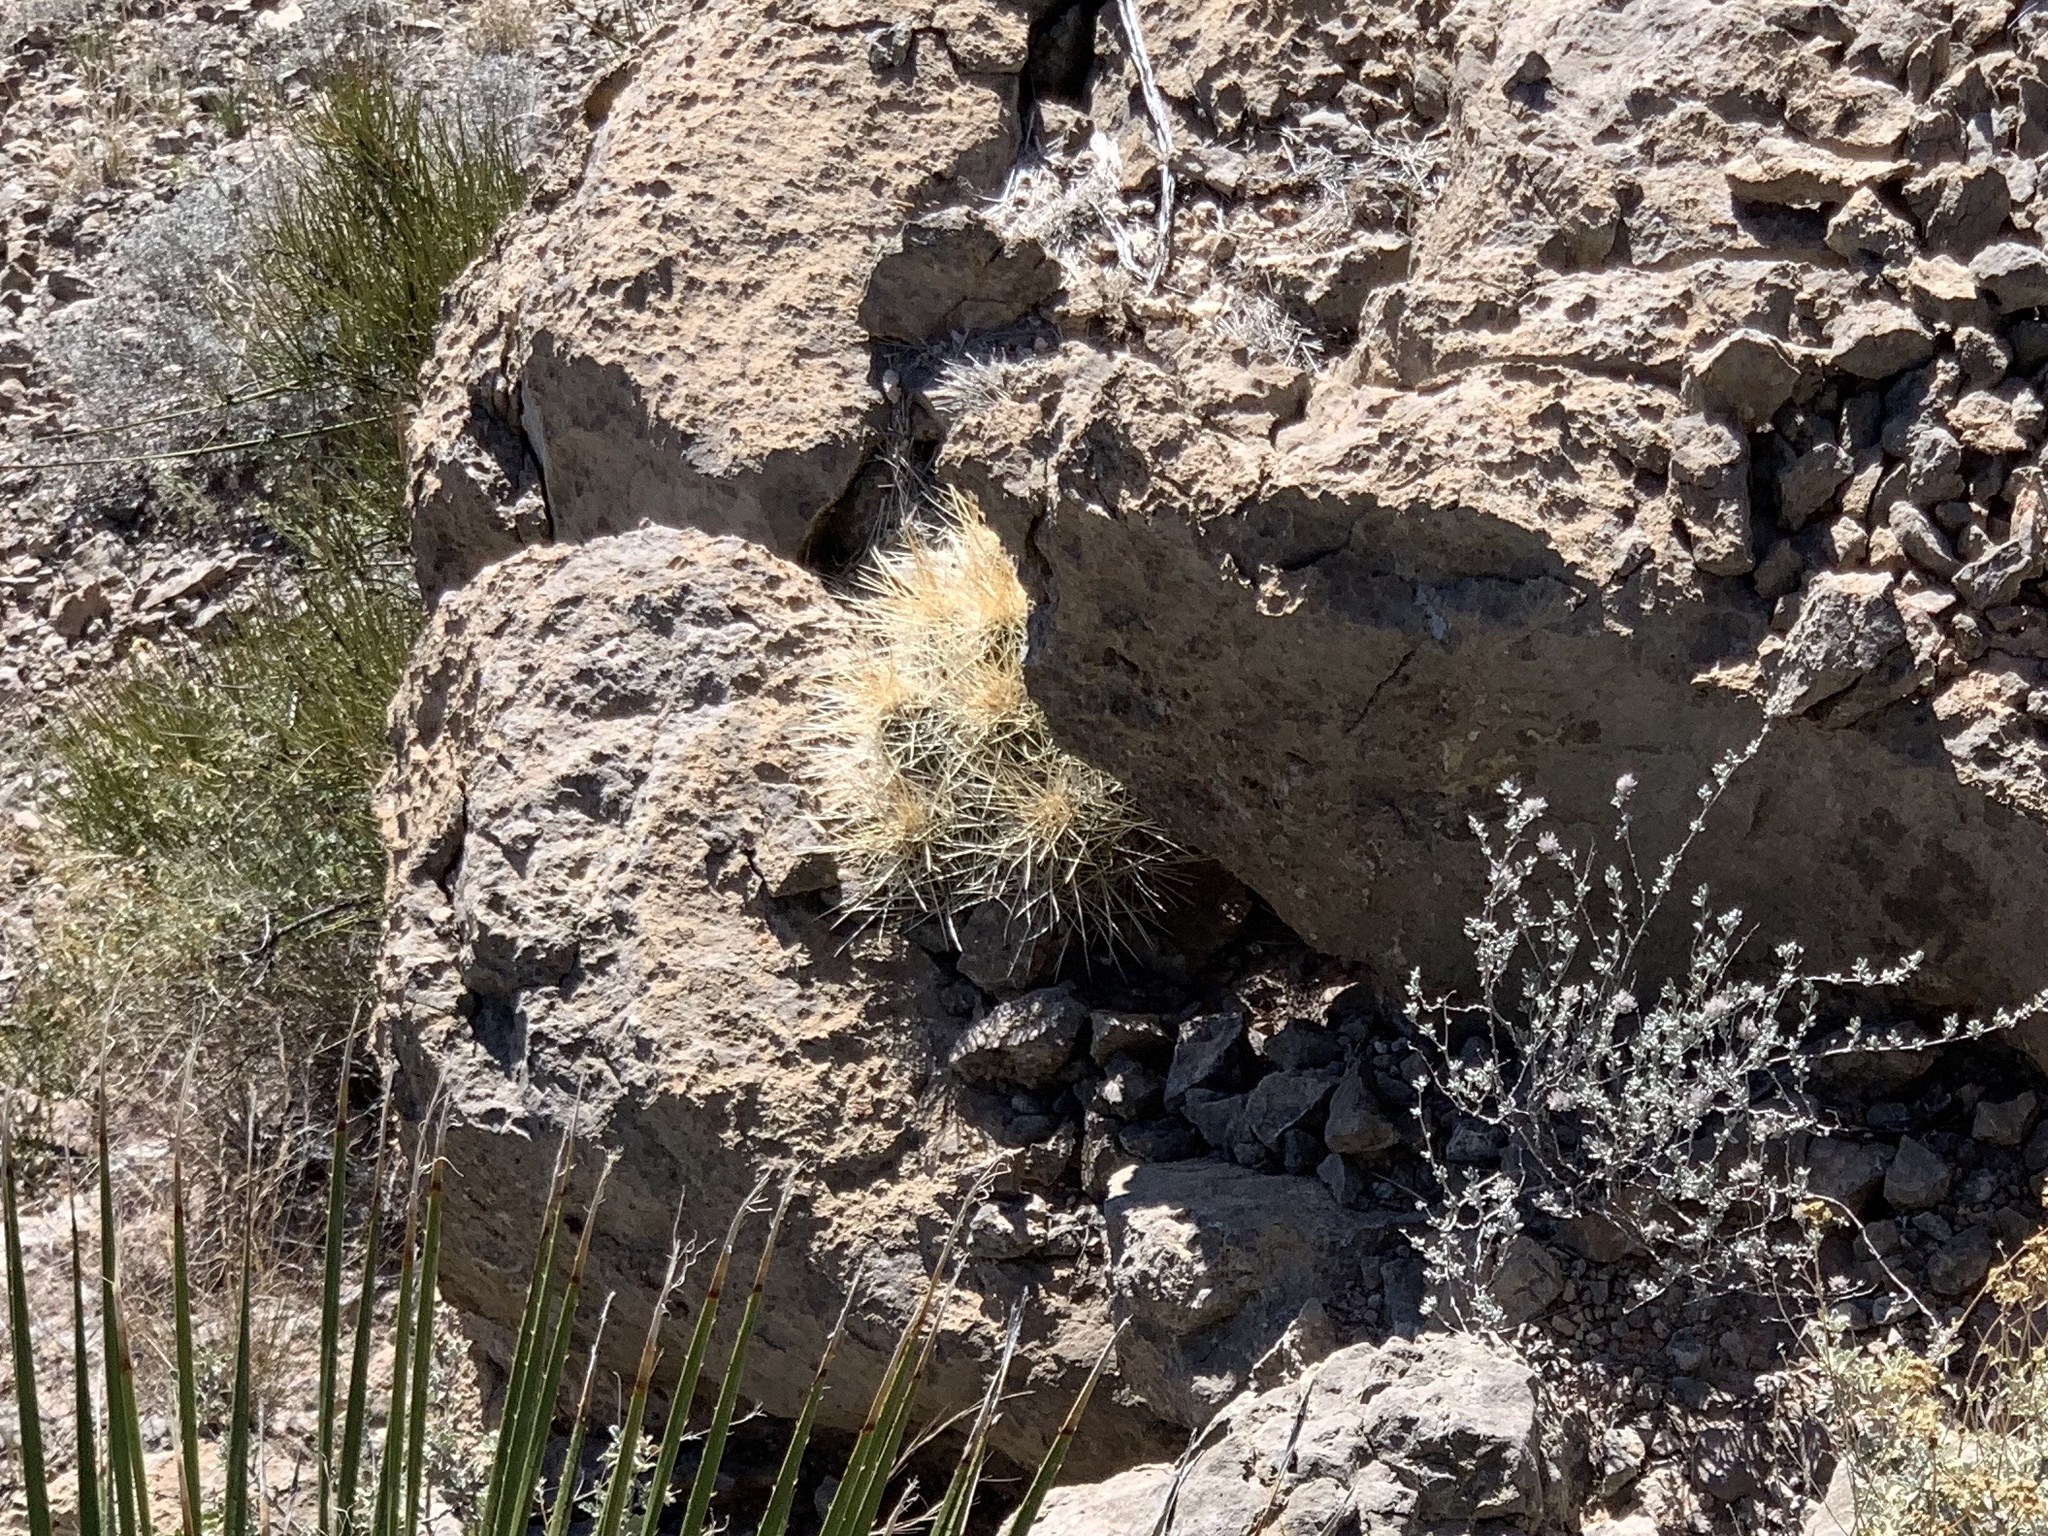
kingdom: Plantae
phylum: Tracheophyta
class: Magnoliopsida
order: Caryophyllales
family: Cactaceae
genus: Echinocereus
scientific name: Echinocereus stramineus
